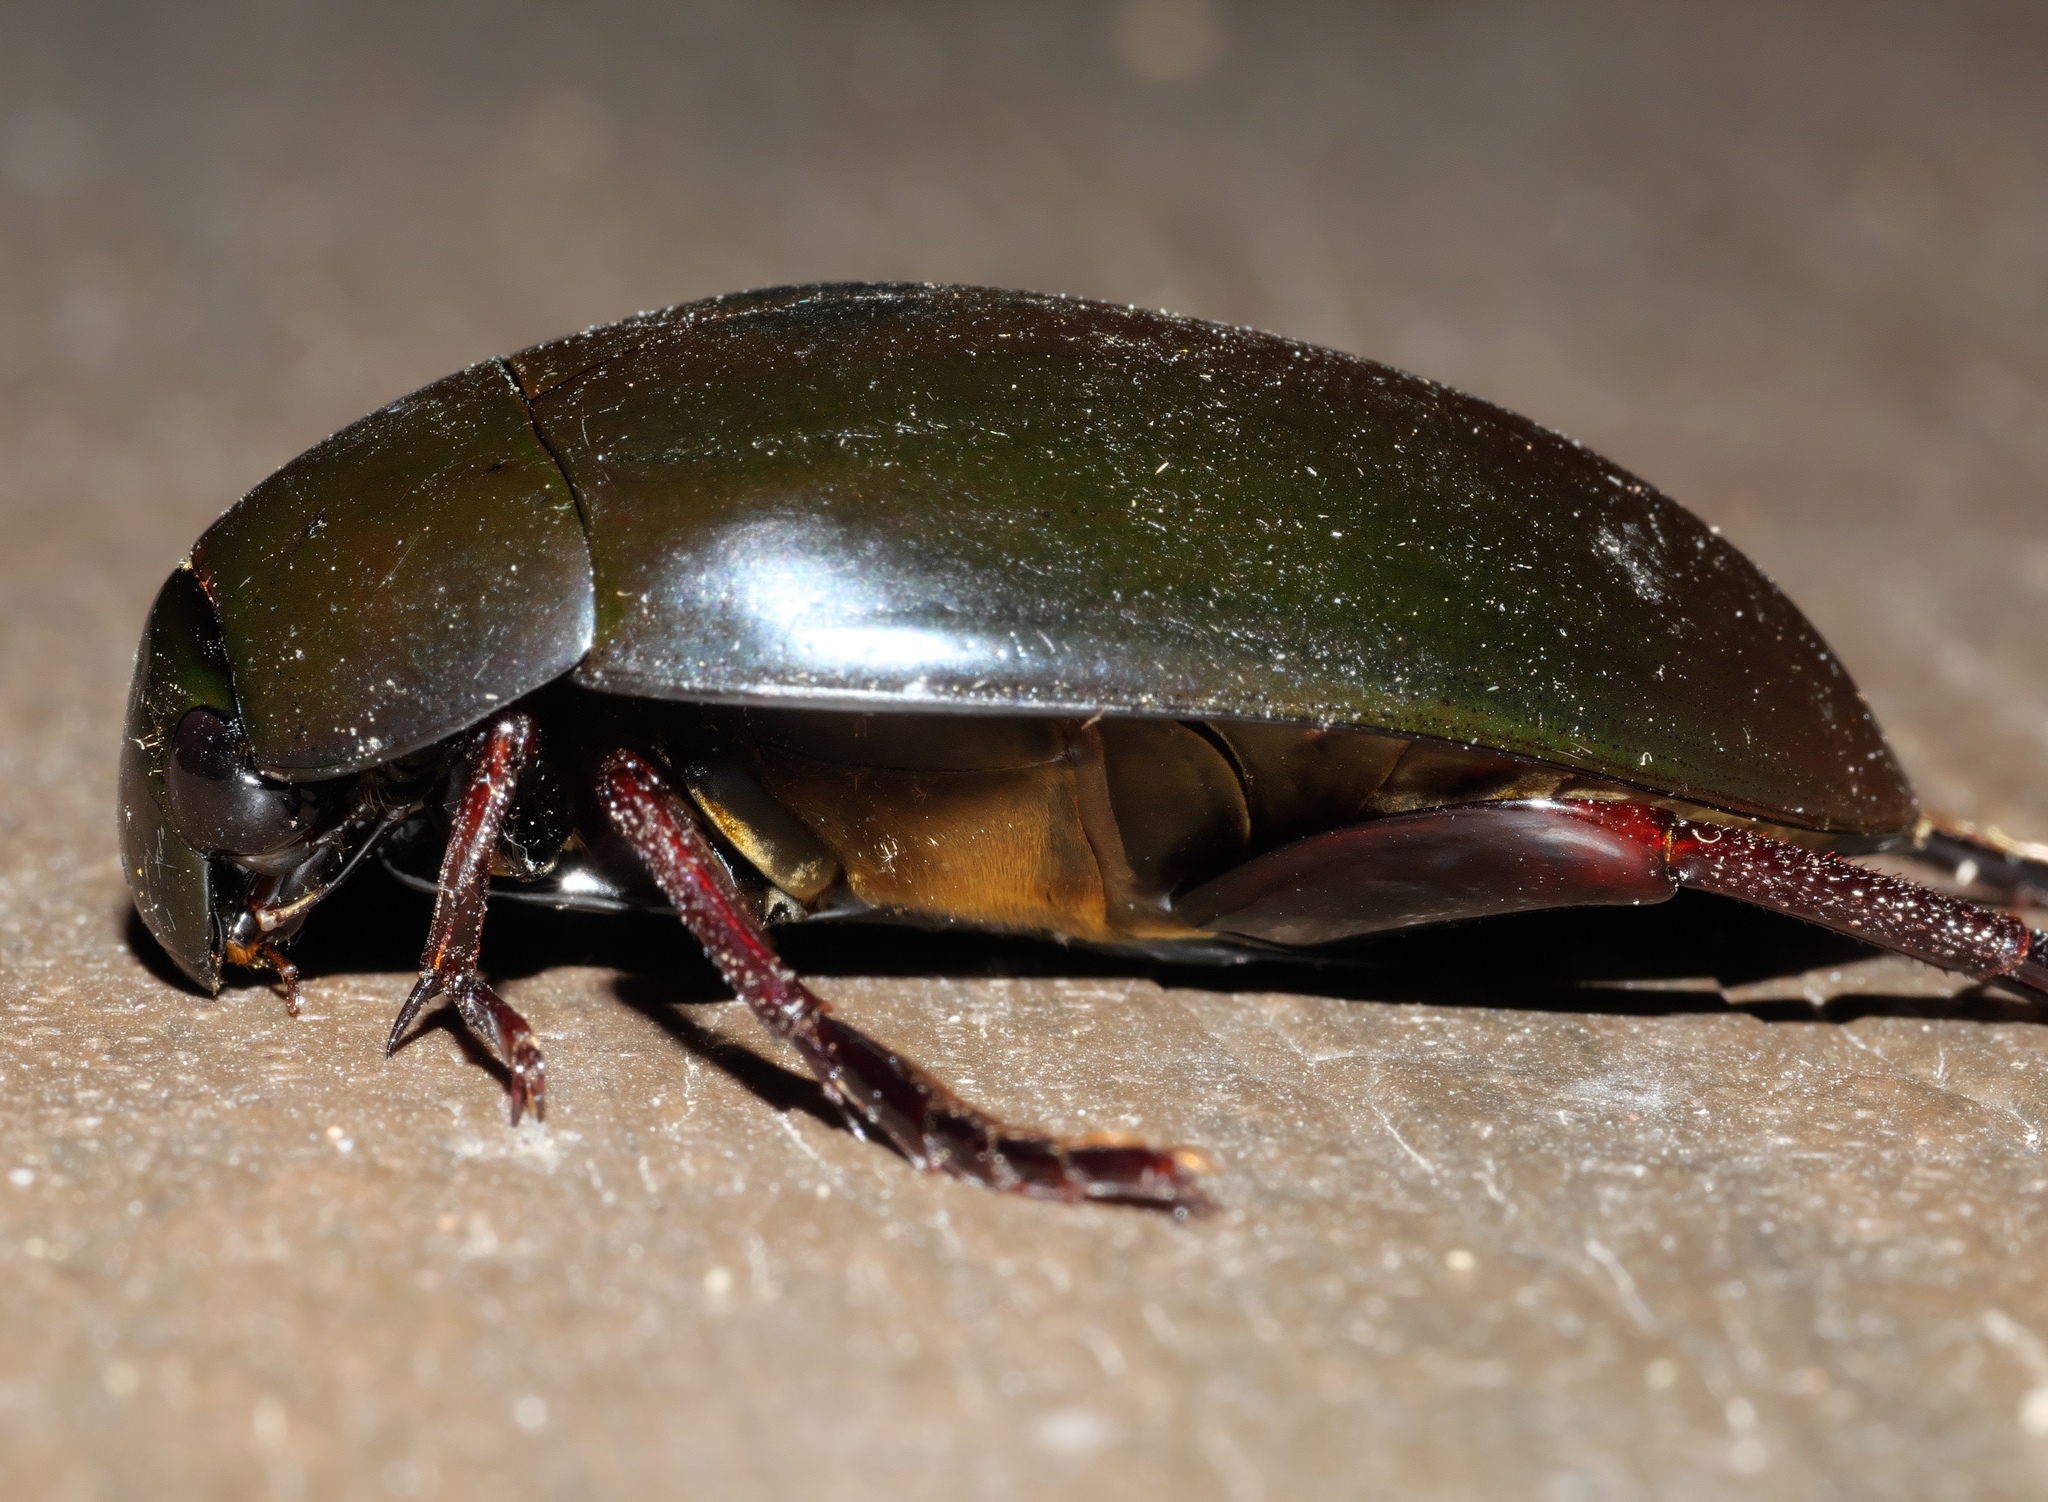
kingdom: Animalia
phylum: Arthropoda
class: Insecta
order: Coleoptera
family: Hydrophilidae
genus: Hydrophilus
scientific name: Hydrophilus ovatus
